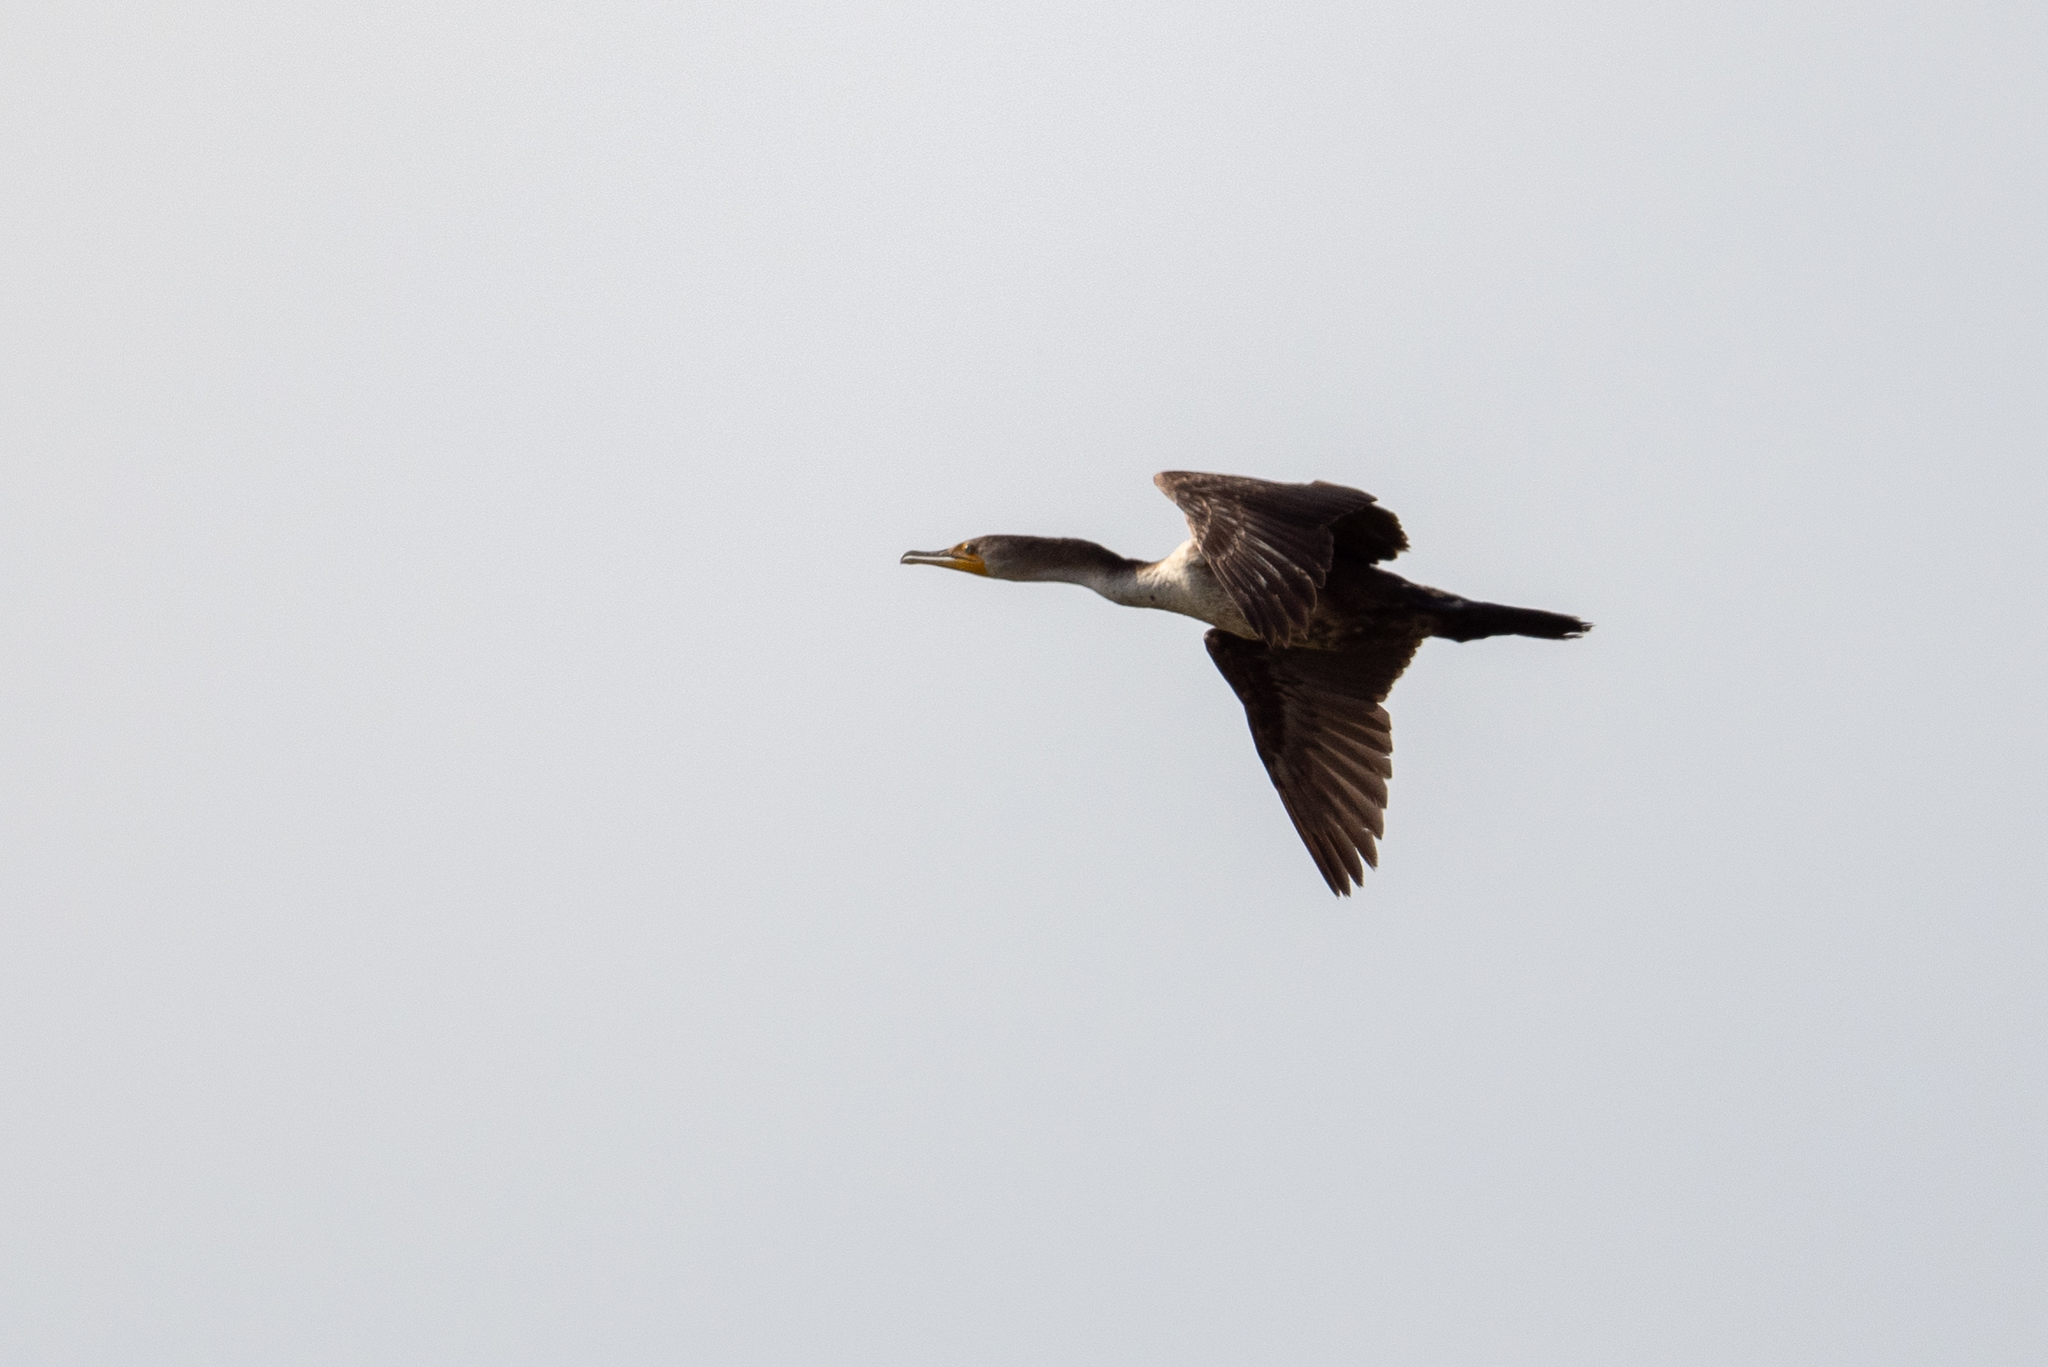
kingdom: Animalia
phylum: Chordata
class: Aves
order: Suliformes
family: Phalacrocoracidae
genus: Phalacrocorax
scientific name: Phalacrocorax auritus
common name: Double-crested cormorant
